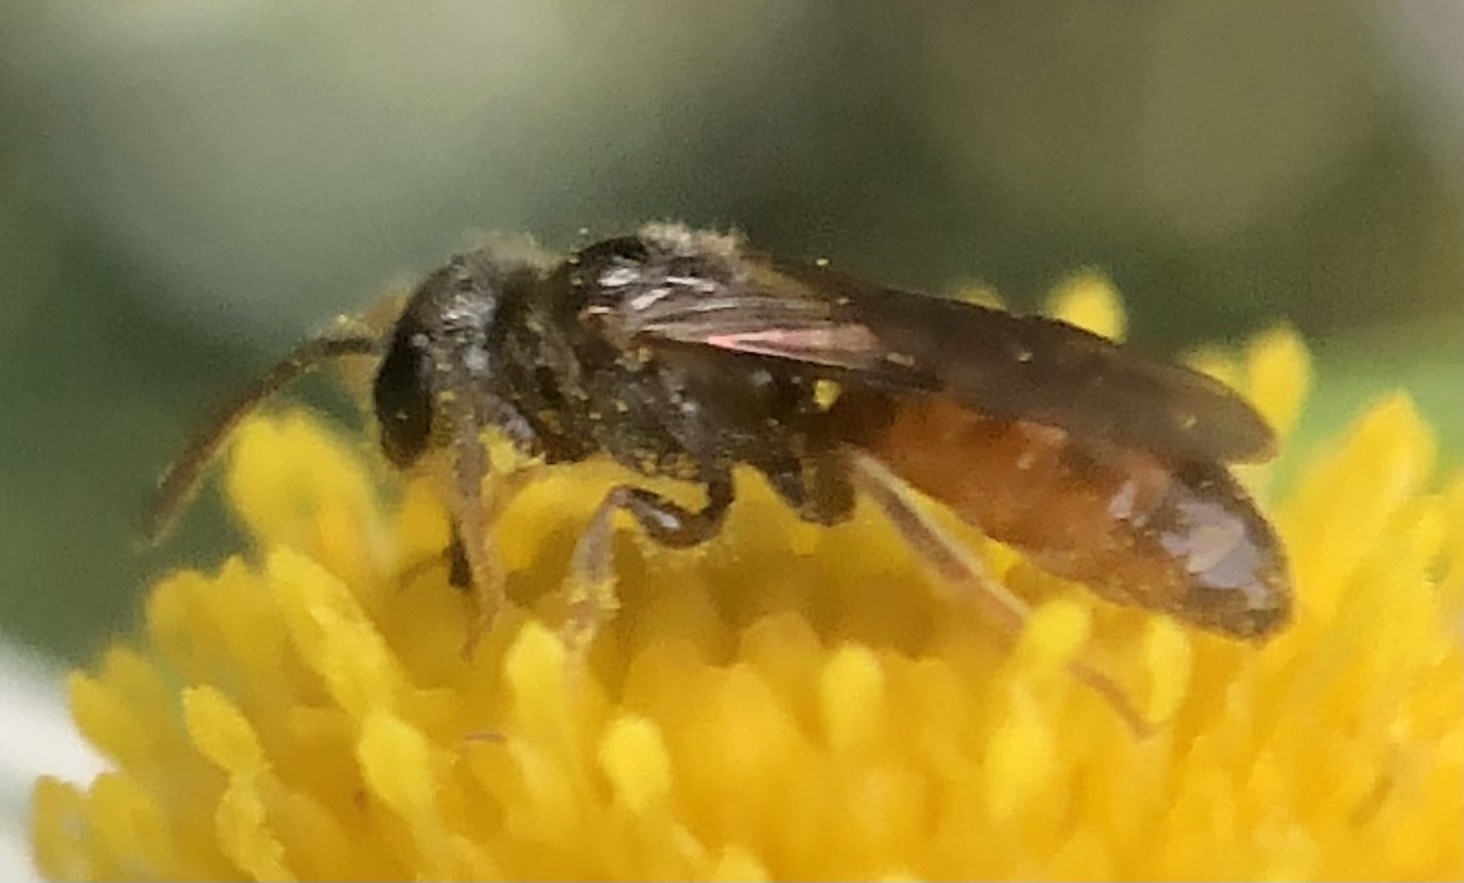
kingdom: Animalia
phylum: Arthropoda
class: Insecta
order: Hymenoptera
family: Halictidae
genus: Lasioglossum
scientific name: Lasioglossum zephyrum
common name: Zephyr sweat bee
